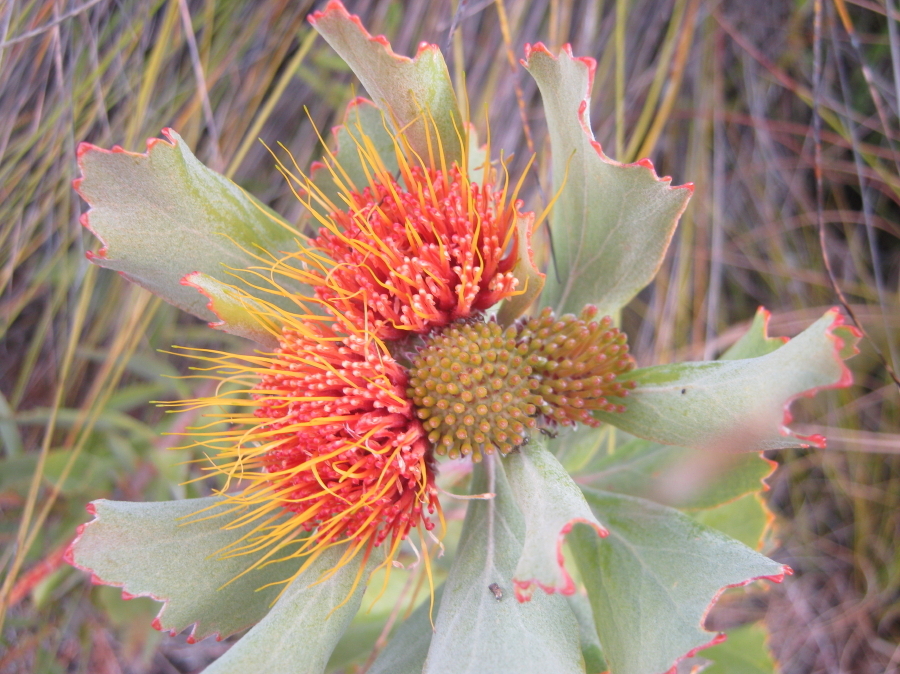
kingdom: Plantae
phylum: Tracheophyta
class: Magnoliopsida
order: Proteales
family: Proteaceae
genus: Leucospermum
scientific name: Leucospermum mundii
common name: Langeberg pincushion
